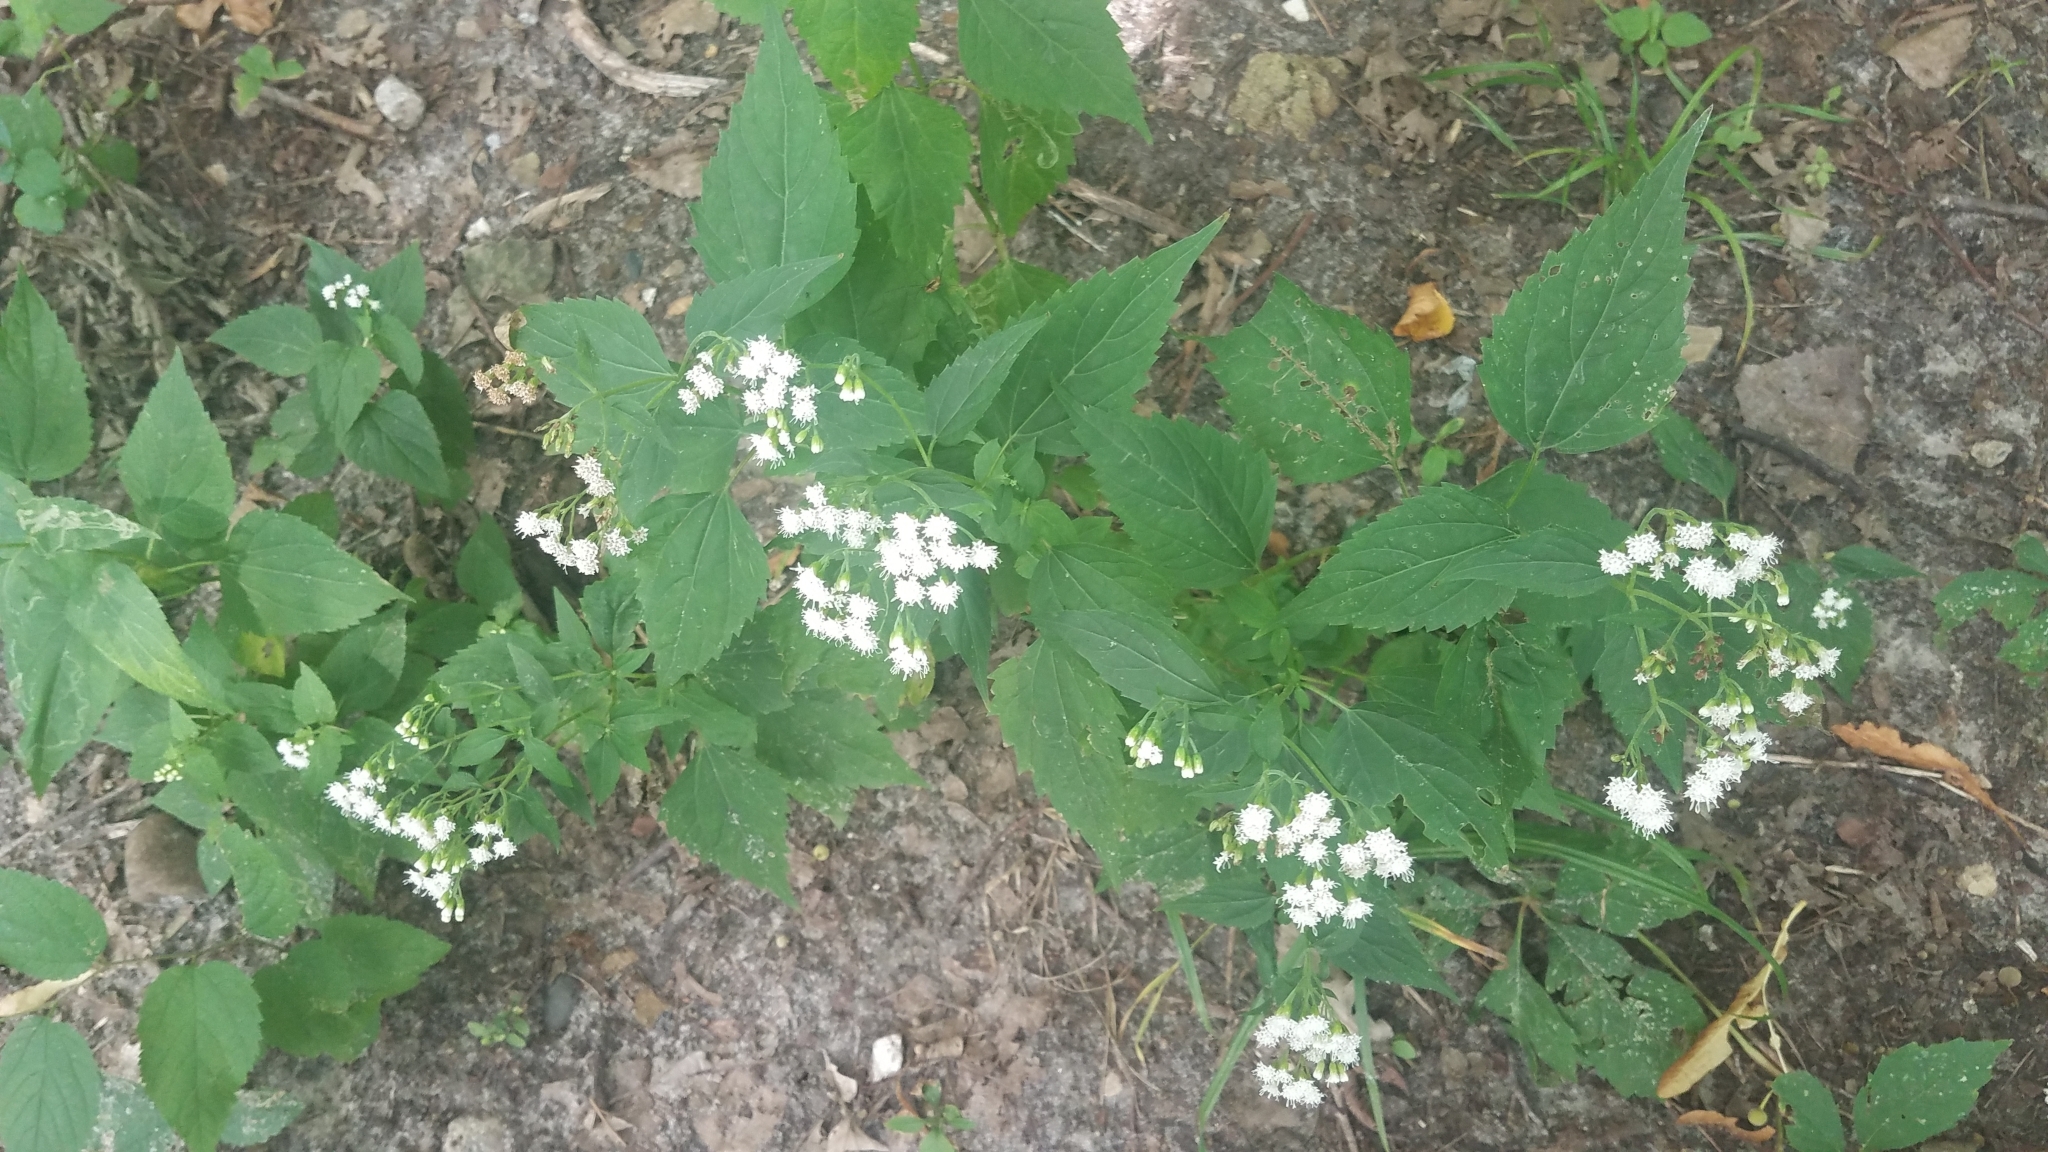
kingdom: Plantae
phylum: Tracheophyta
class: Magnoliopsida
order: Asterales
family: Asteraceae
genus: Ageratina
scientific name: Ageratina altissima
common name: White snakeroot
